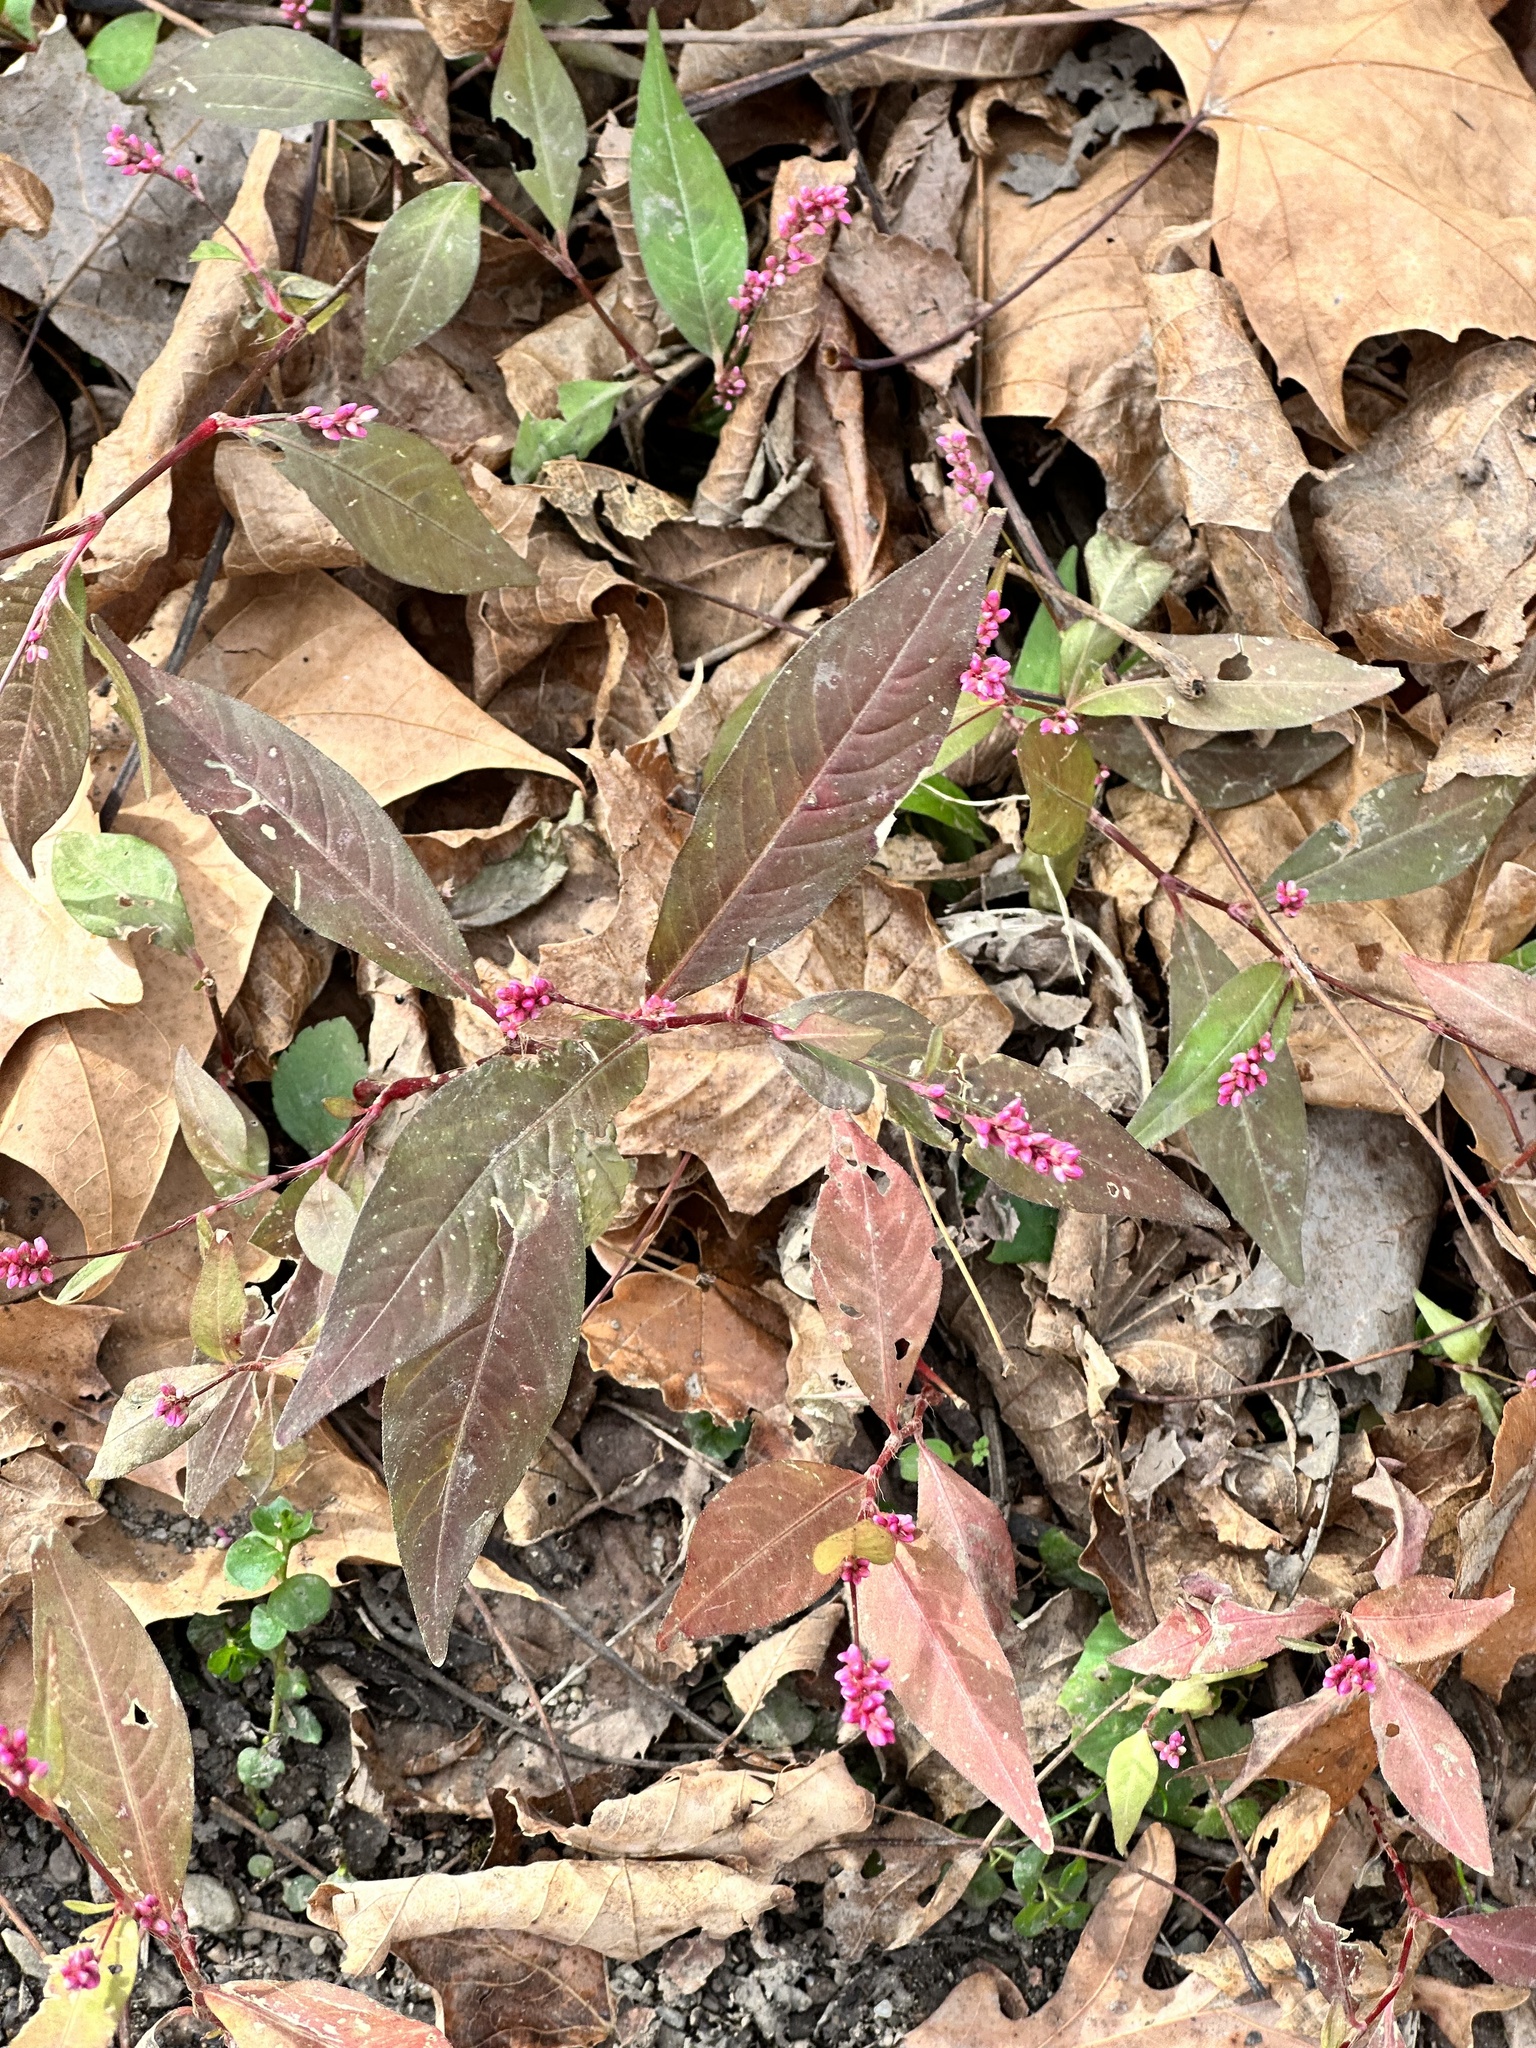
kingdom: Plantae
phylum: Tracheophyta
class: Magnoliopsida
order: Caryophyllales
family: Polygonaceae
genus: Persicaria
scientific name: Persicaria longiseta
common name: Bristly lady's-thumb
